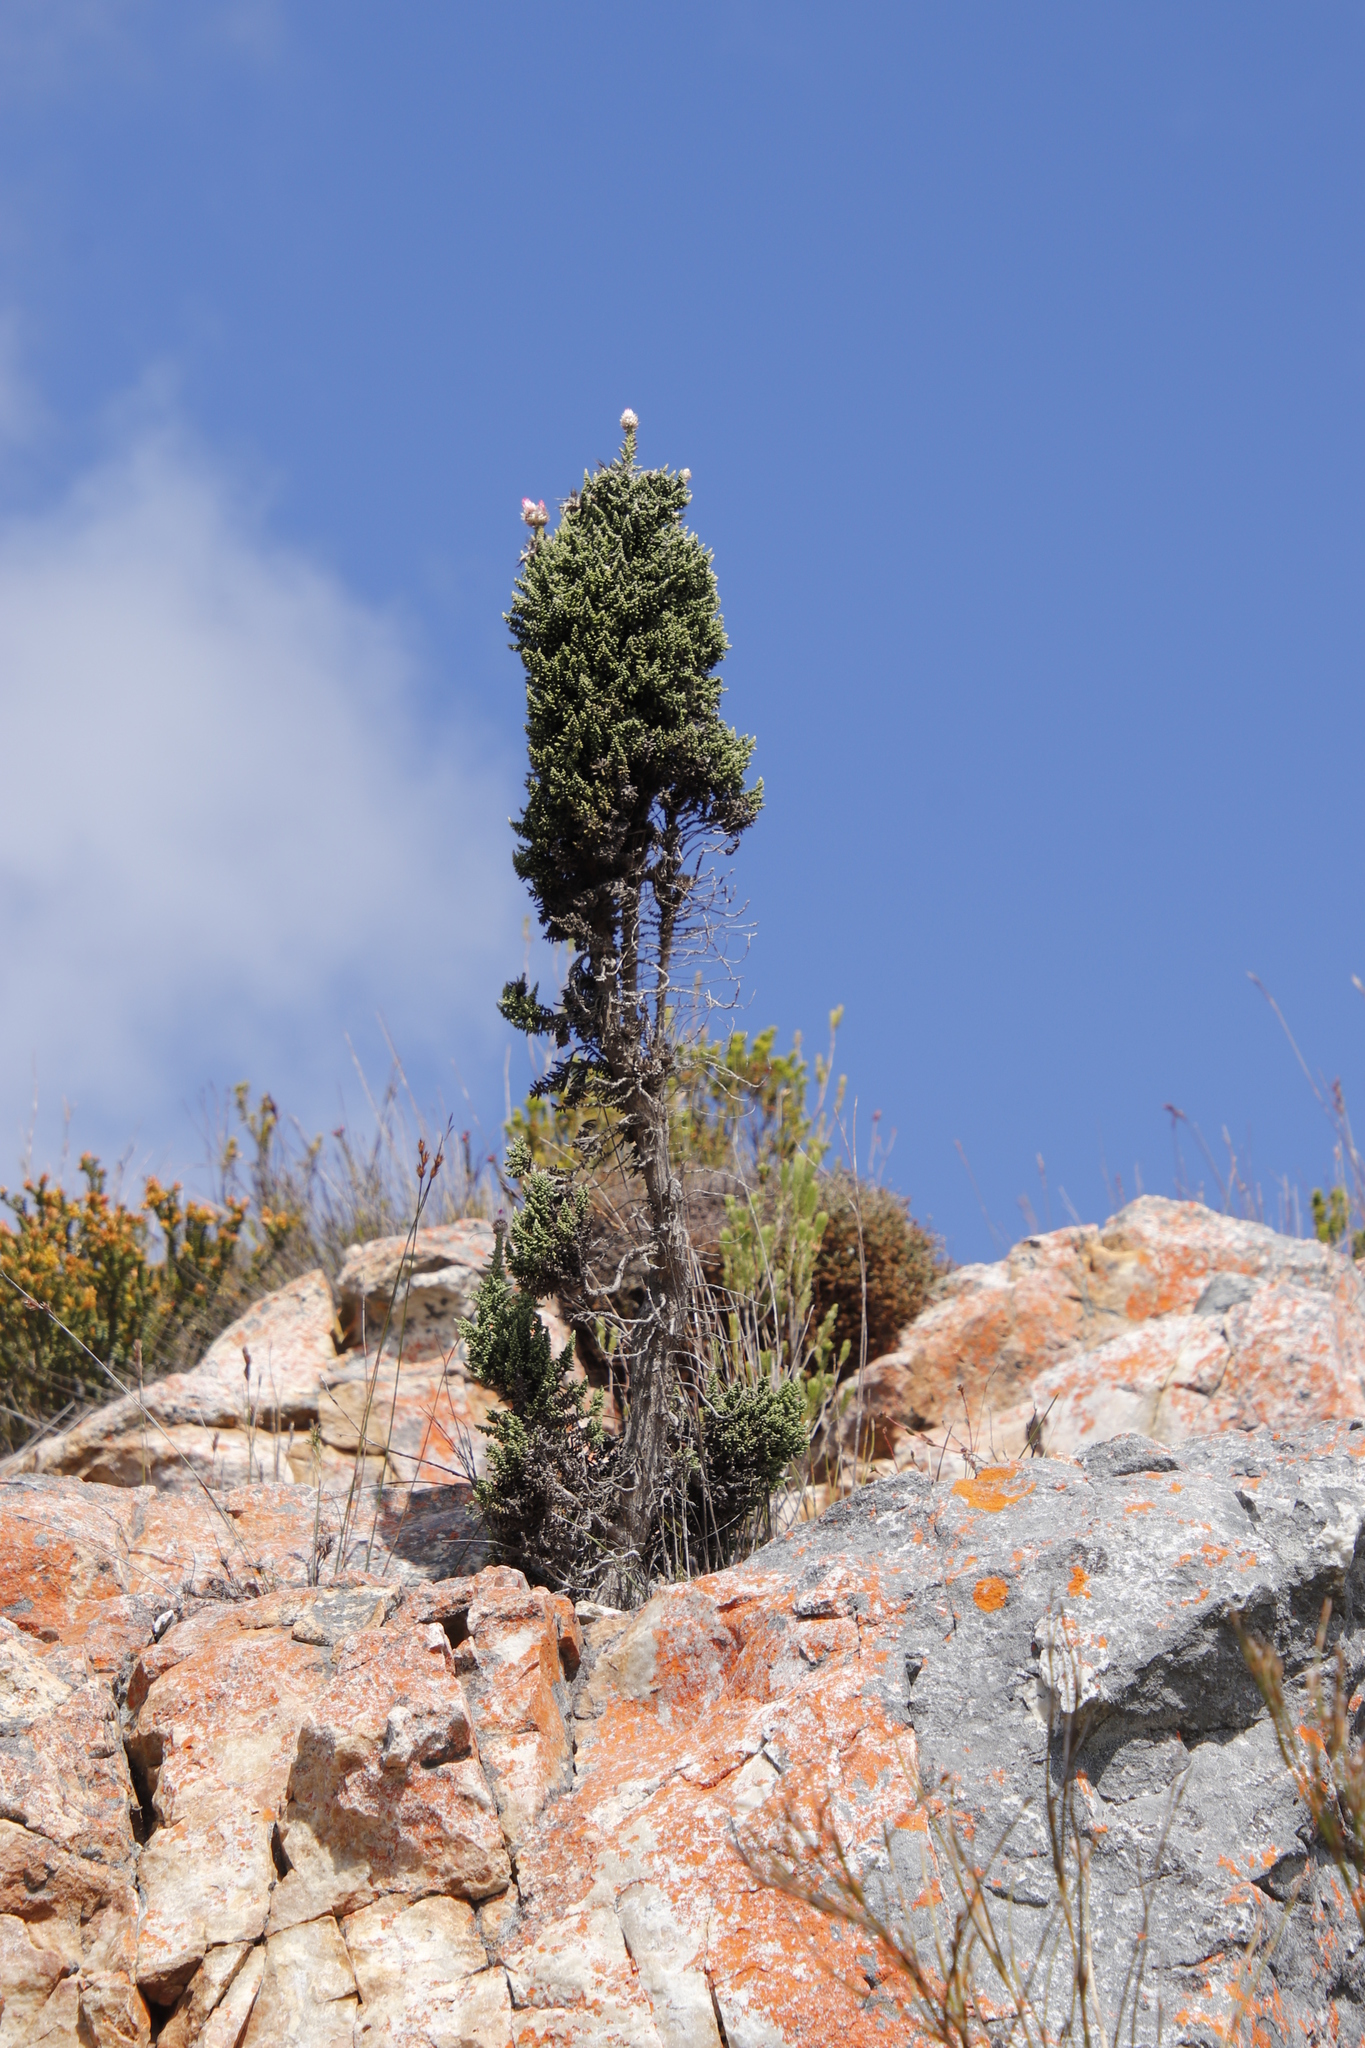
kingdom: Plantae
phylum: Tracheophyta
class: Magnoliopsida
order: Asterales
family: Asteraceae
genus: Phaenocoma
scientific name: Phaenocoma prolifera
